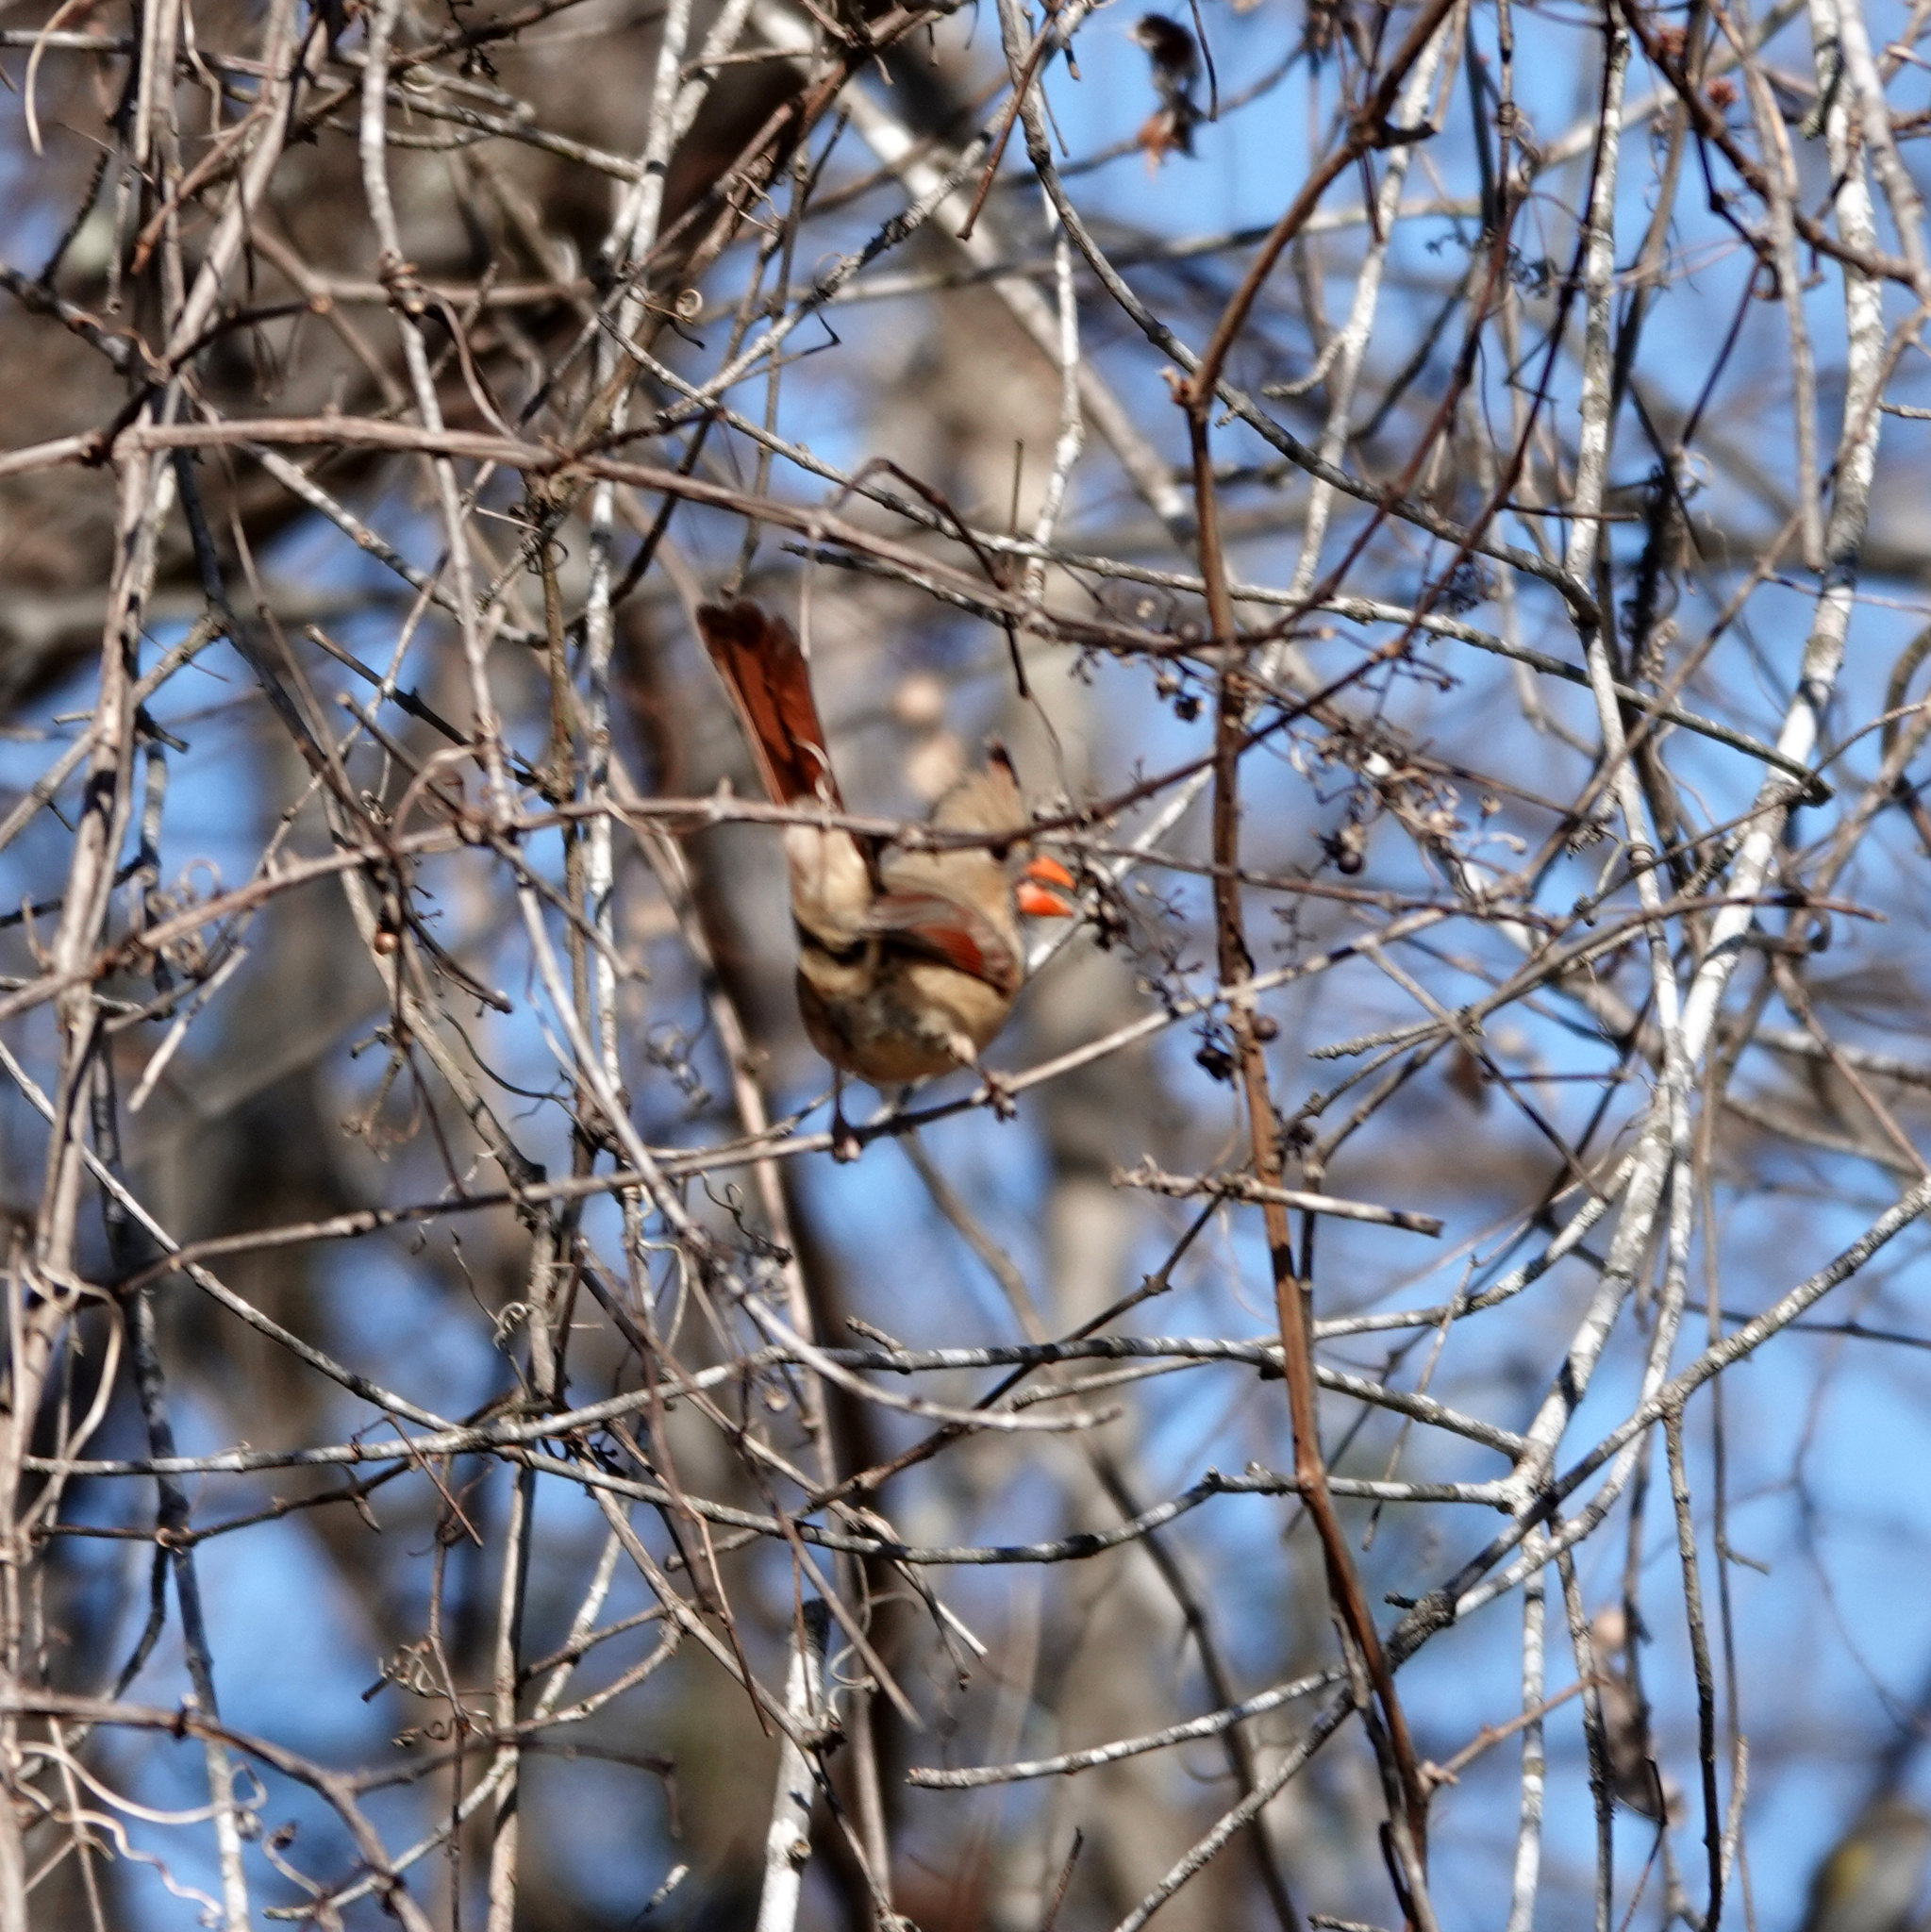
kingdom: Animalia
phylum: Chordata
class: Aves
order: Passeriformes
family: Cardinalidae
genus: Cardinalis
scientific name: Cardinalis cardinalis
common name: Northern cardinal
